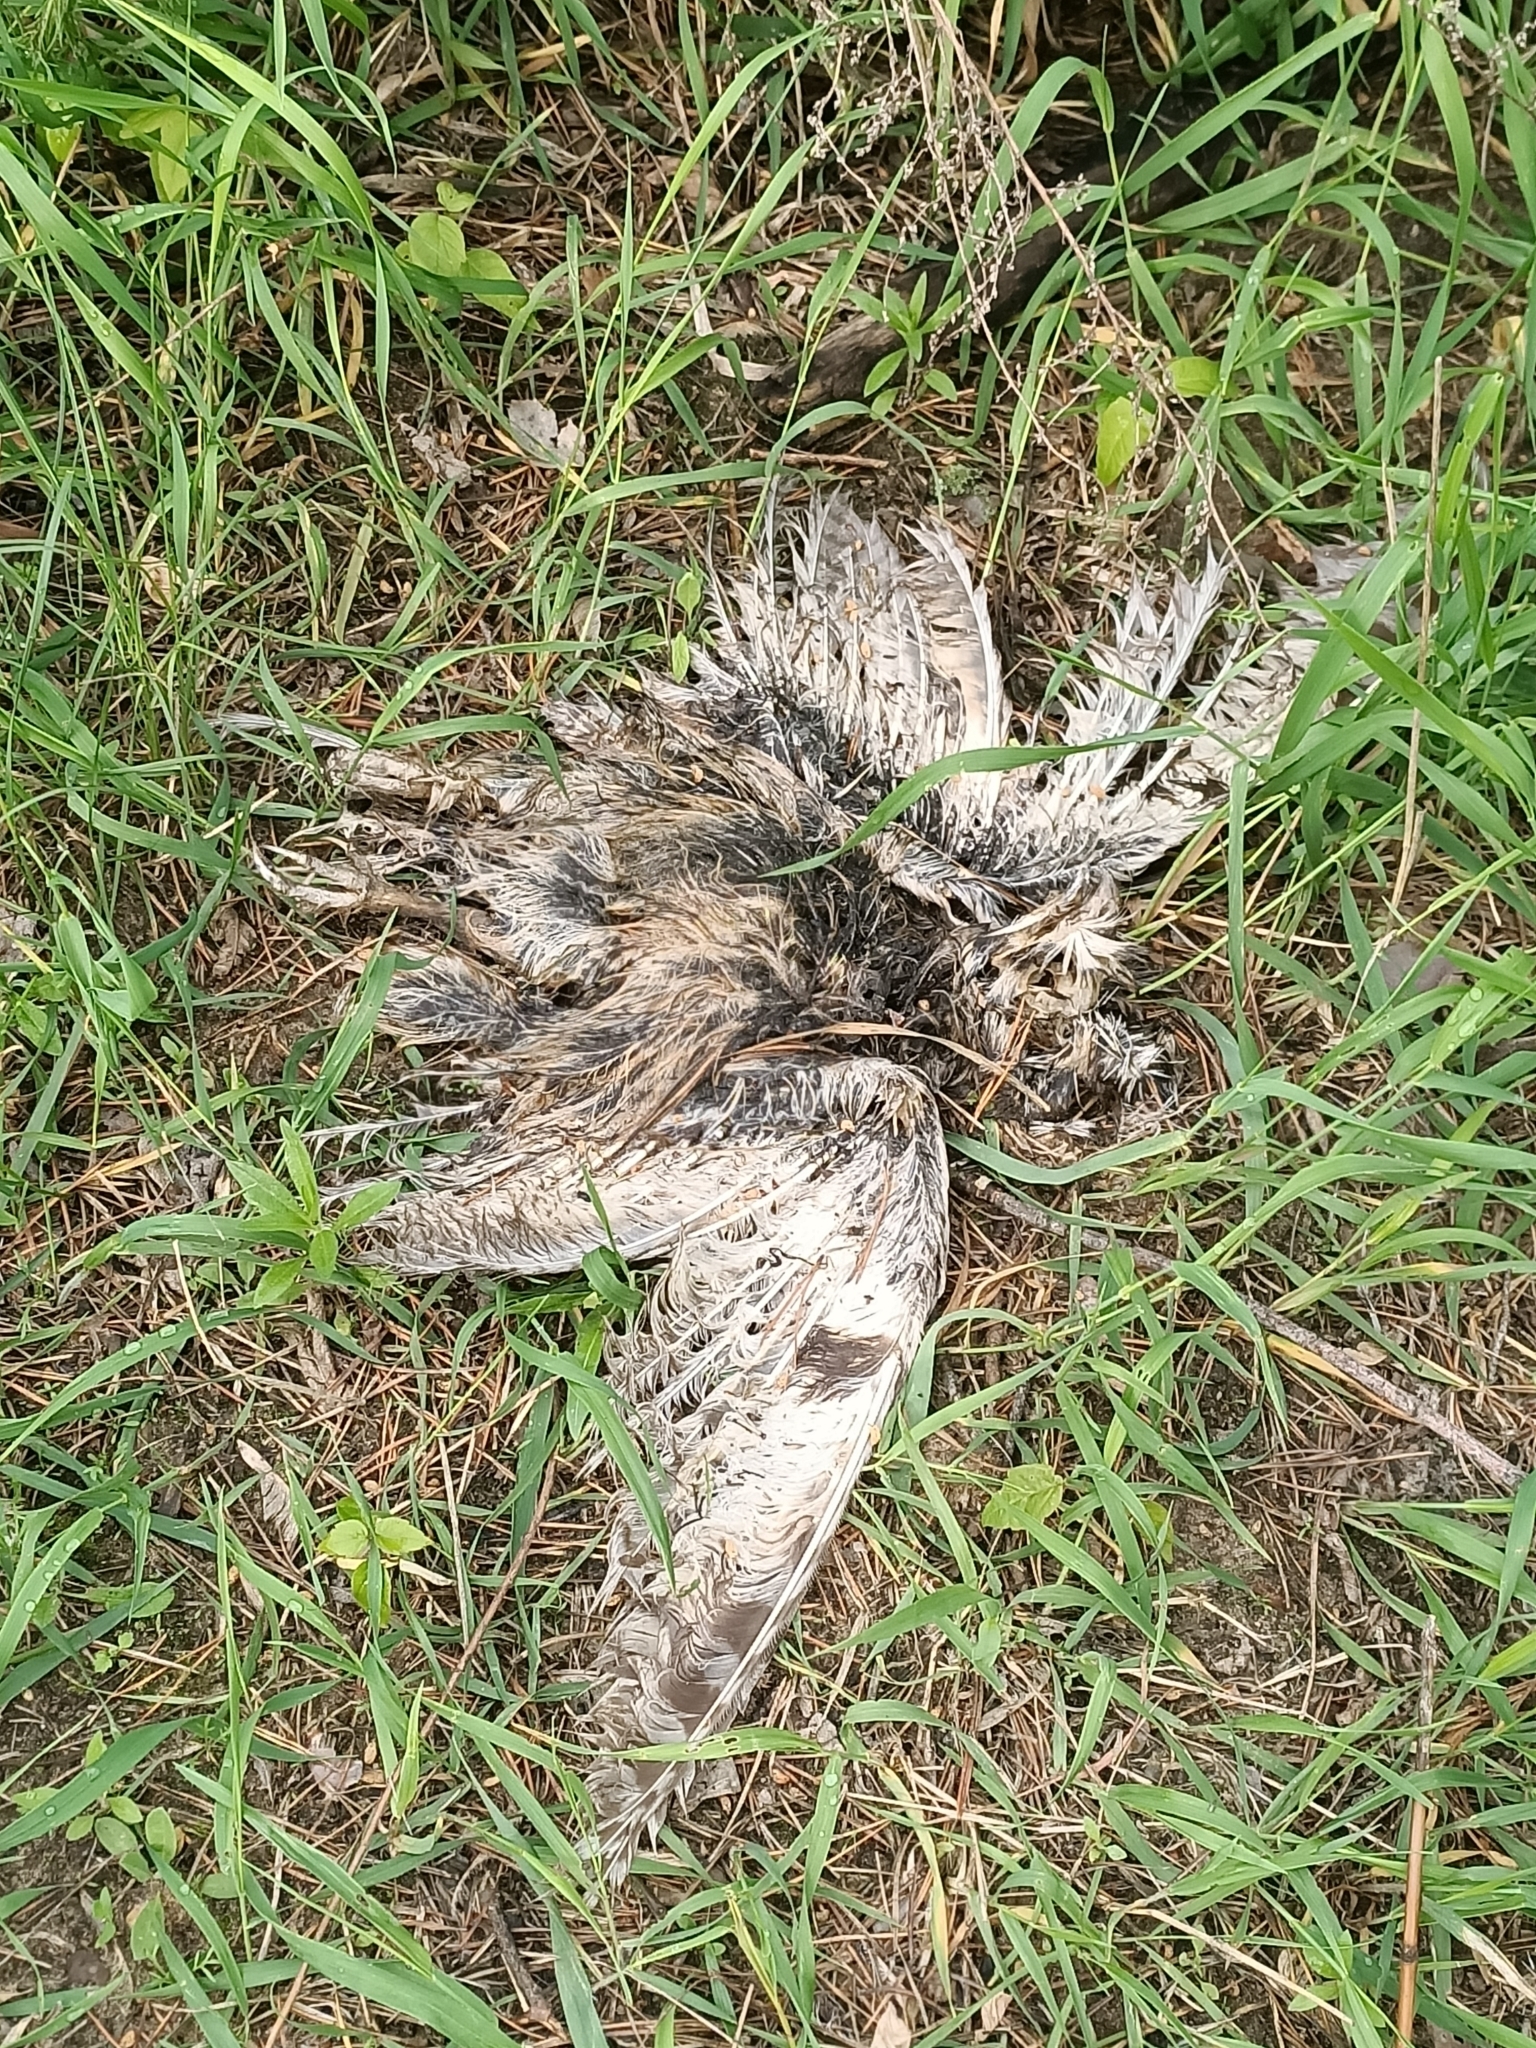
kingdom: Animalia
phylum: Chordata
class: Aves
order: Strigiformes
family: Strigidae
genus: Asio
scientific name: Asio otus
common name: Long-eared owl
